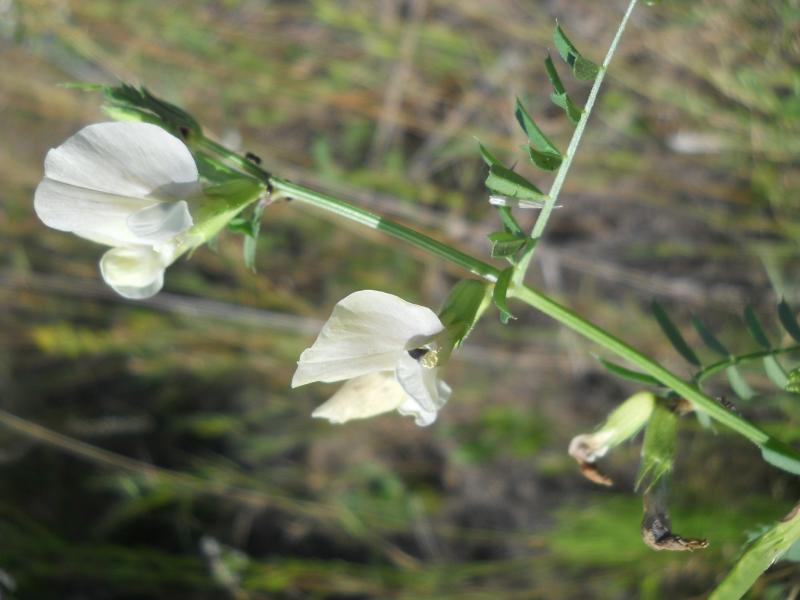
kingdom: Plantae
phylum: Tracheophyta
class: Magnoliopsida
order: Fabales
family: Fabaceae
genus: Vicia
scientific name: Vicia grandiflora
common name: Large yellow vetch
